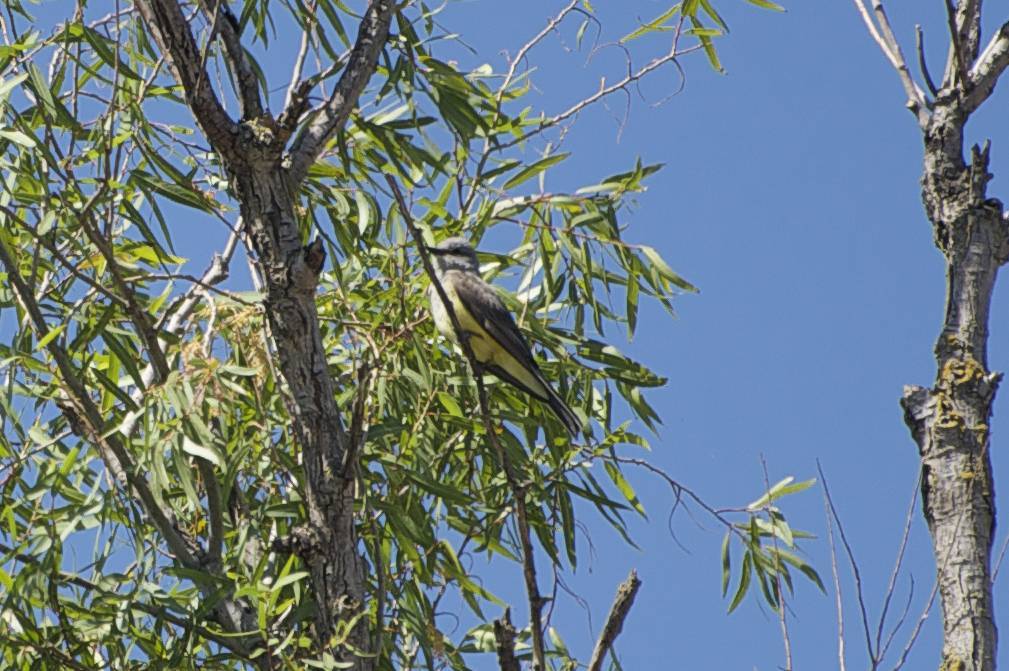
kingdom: Animalia
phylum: Chordata
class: Aves
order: Passeriformes
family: Tyrannidae
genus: Tyrannus
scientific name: Tyrannus verticalis
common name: Western kingbird
